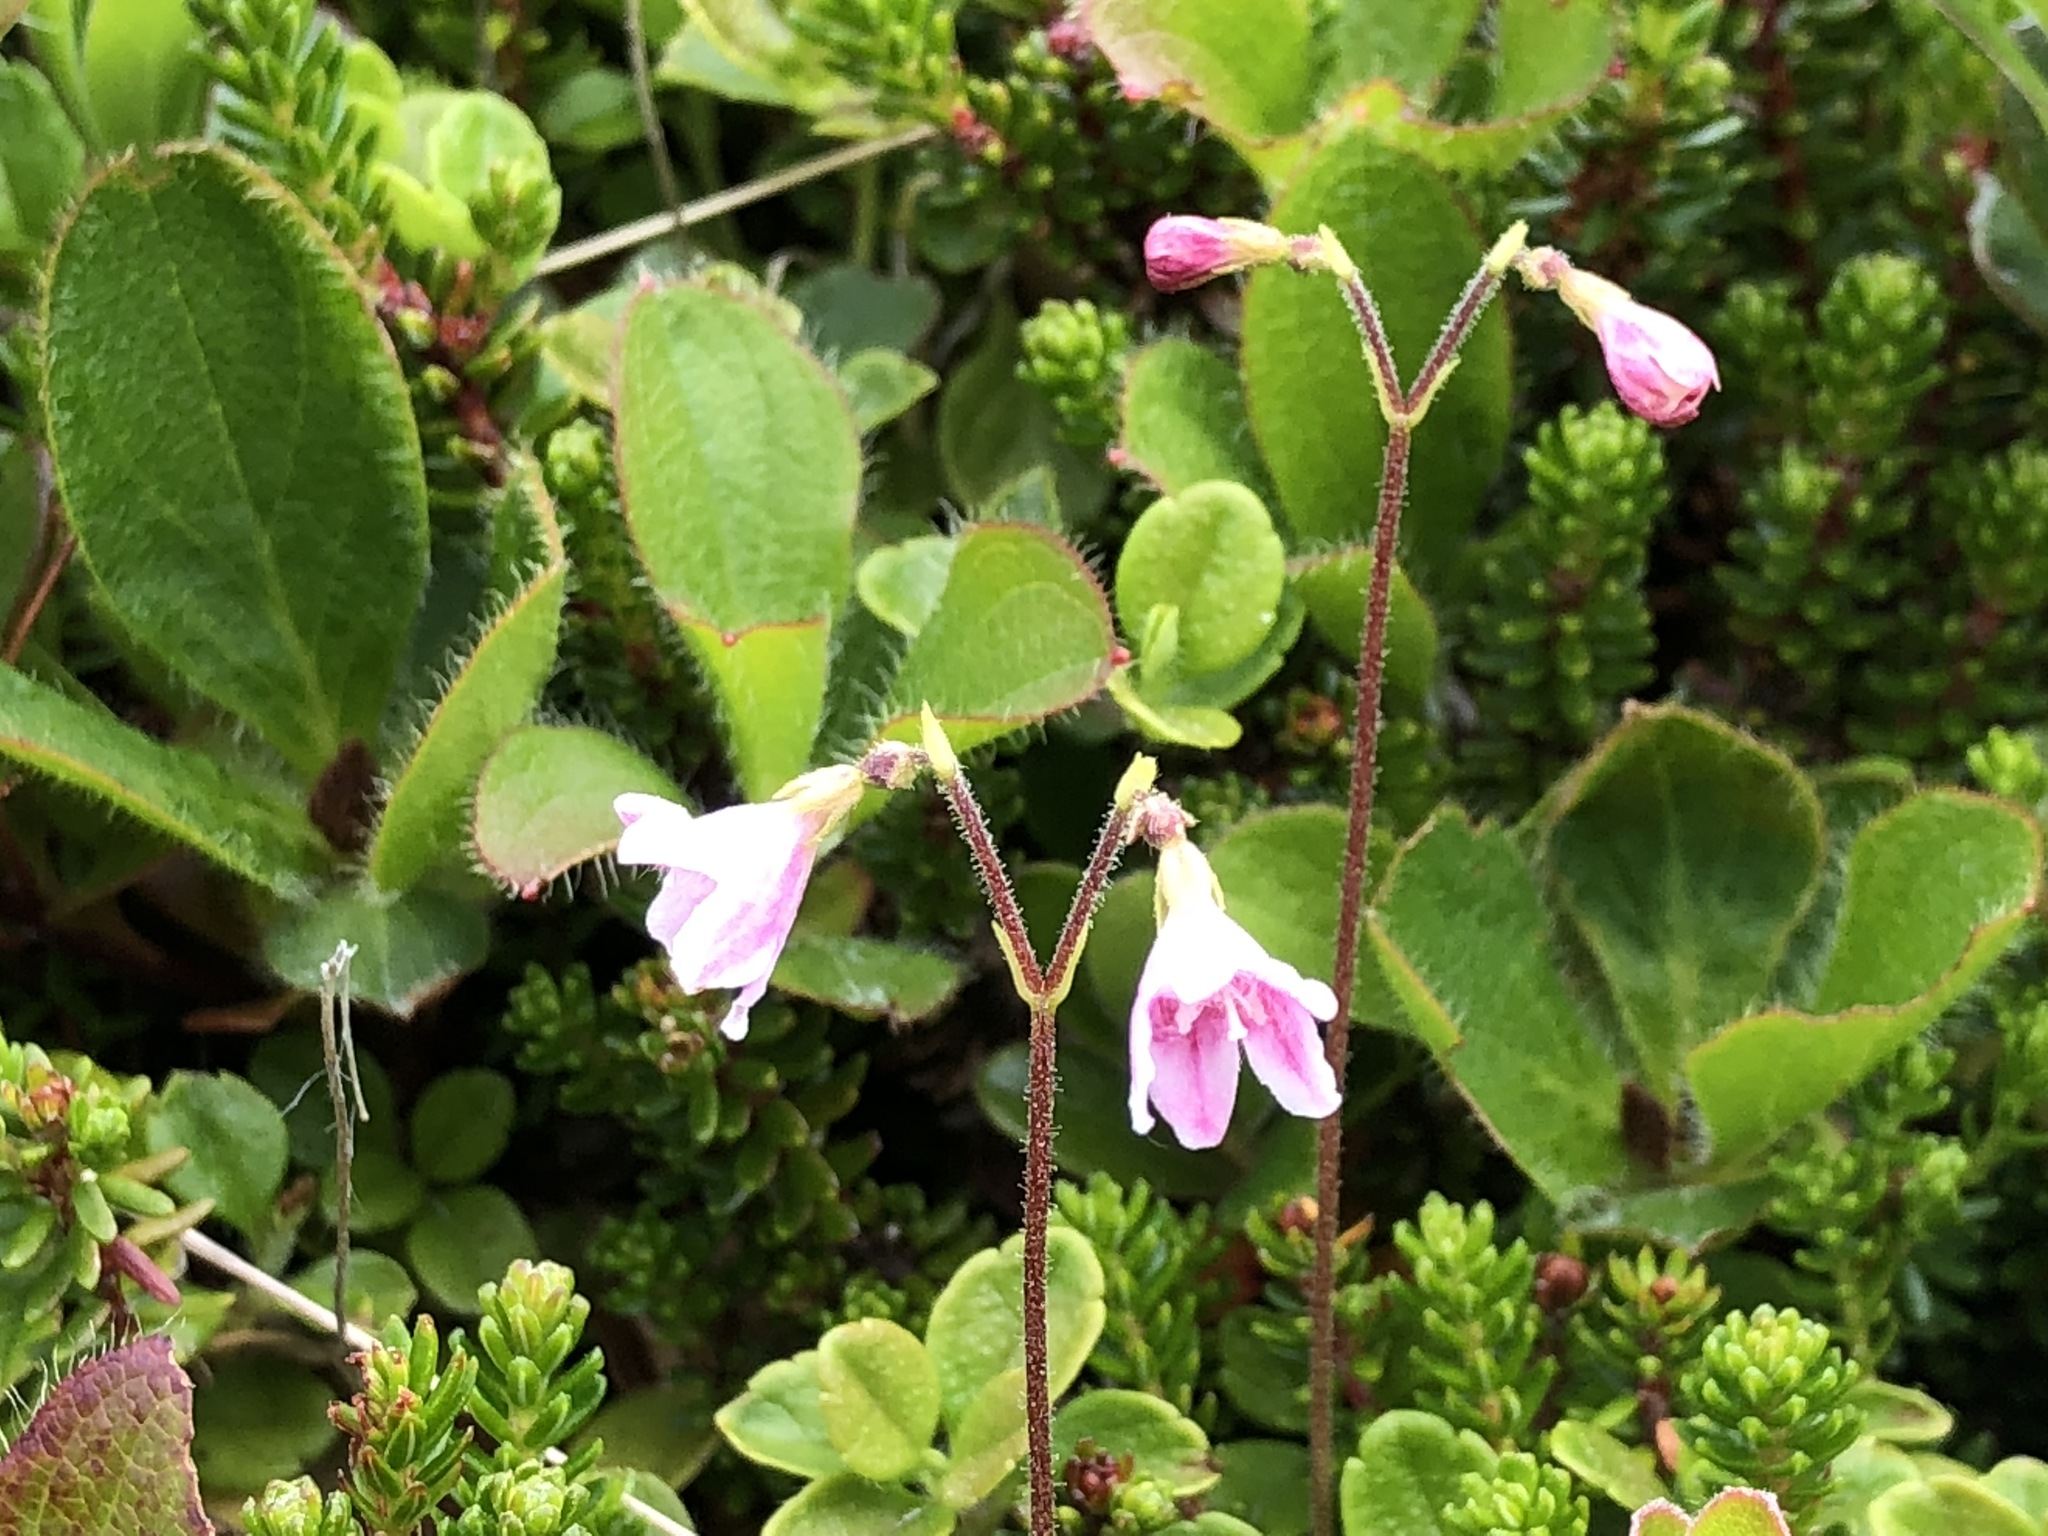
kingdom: Plantae
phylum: Tracheophyta
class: Magnoliopsida
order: Dipsacales
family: Caprifoliaceae
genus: Linnaea
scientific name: Linnaea borealis
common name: Twinflower
